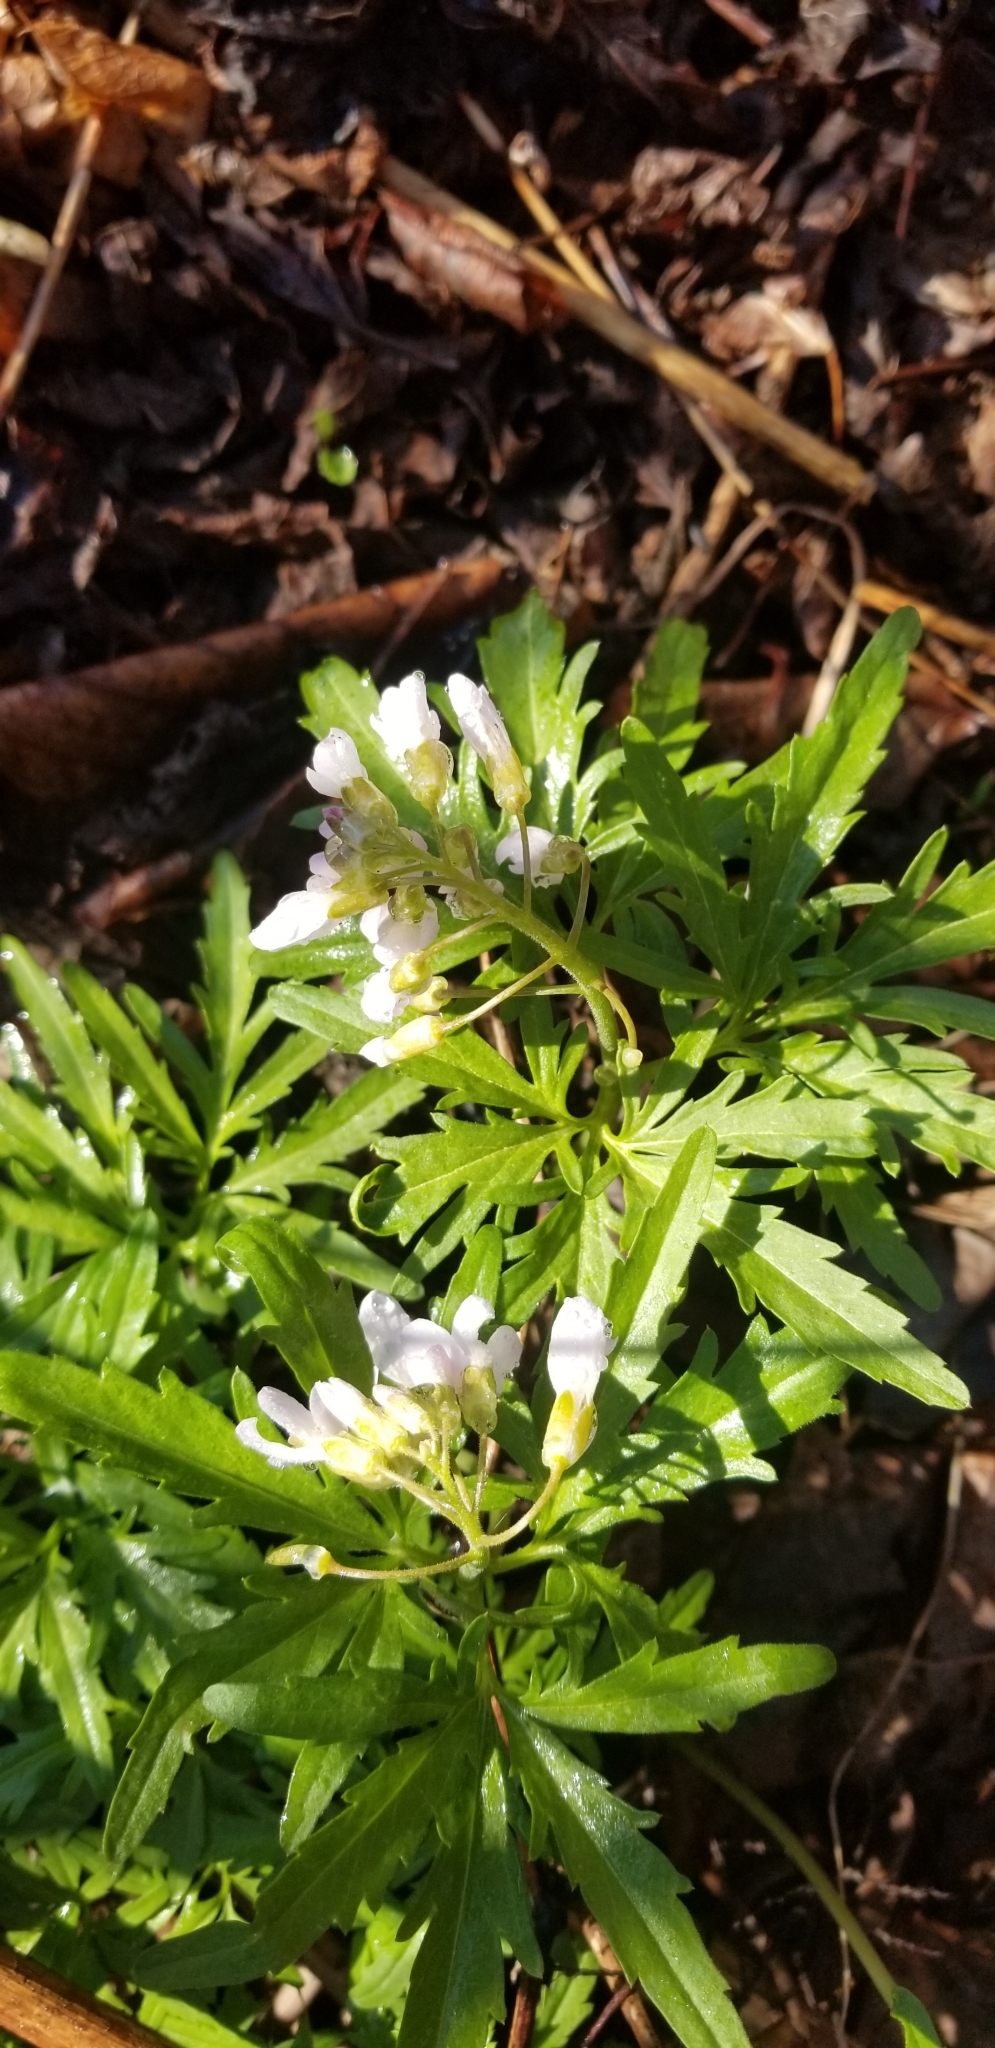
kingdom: Plantae
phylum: Tracheophyta
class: Magnoliopsida
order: Brassicales
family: Brassicaceae
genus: Cardamine
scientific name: Cardamine concatenata
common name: Cut-leaf toothcup
